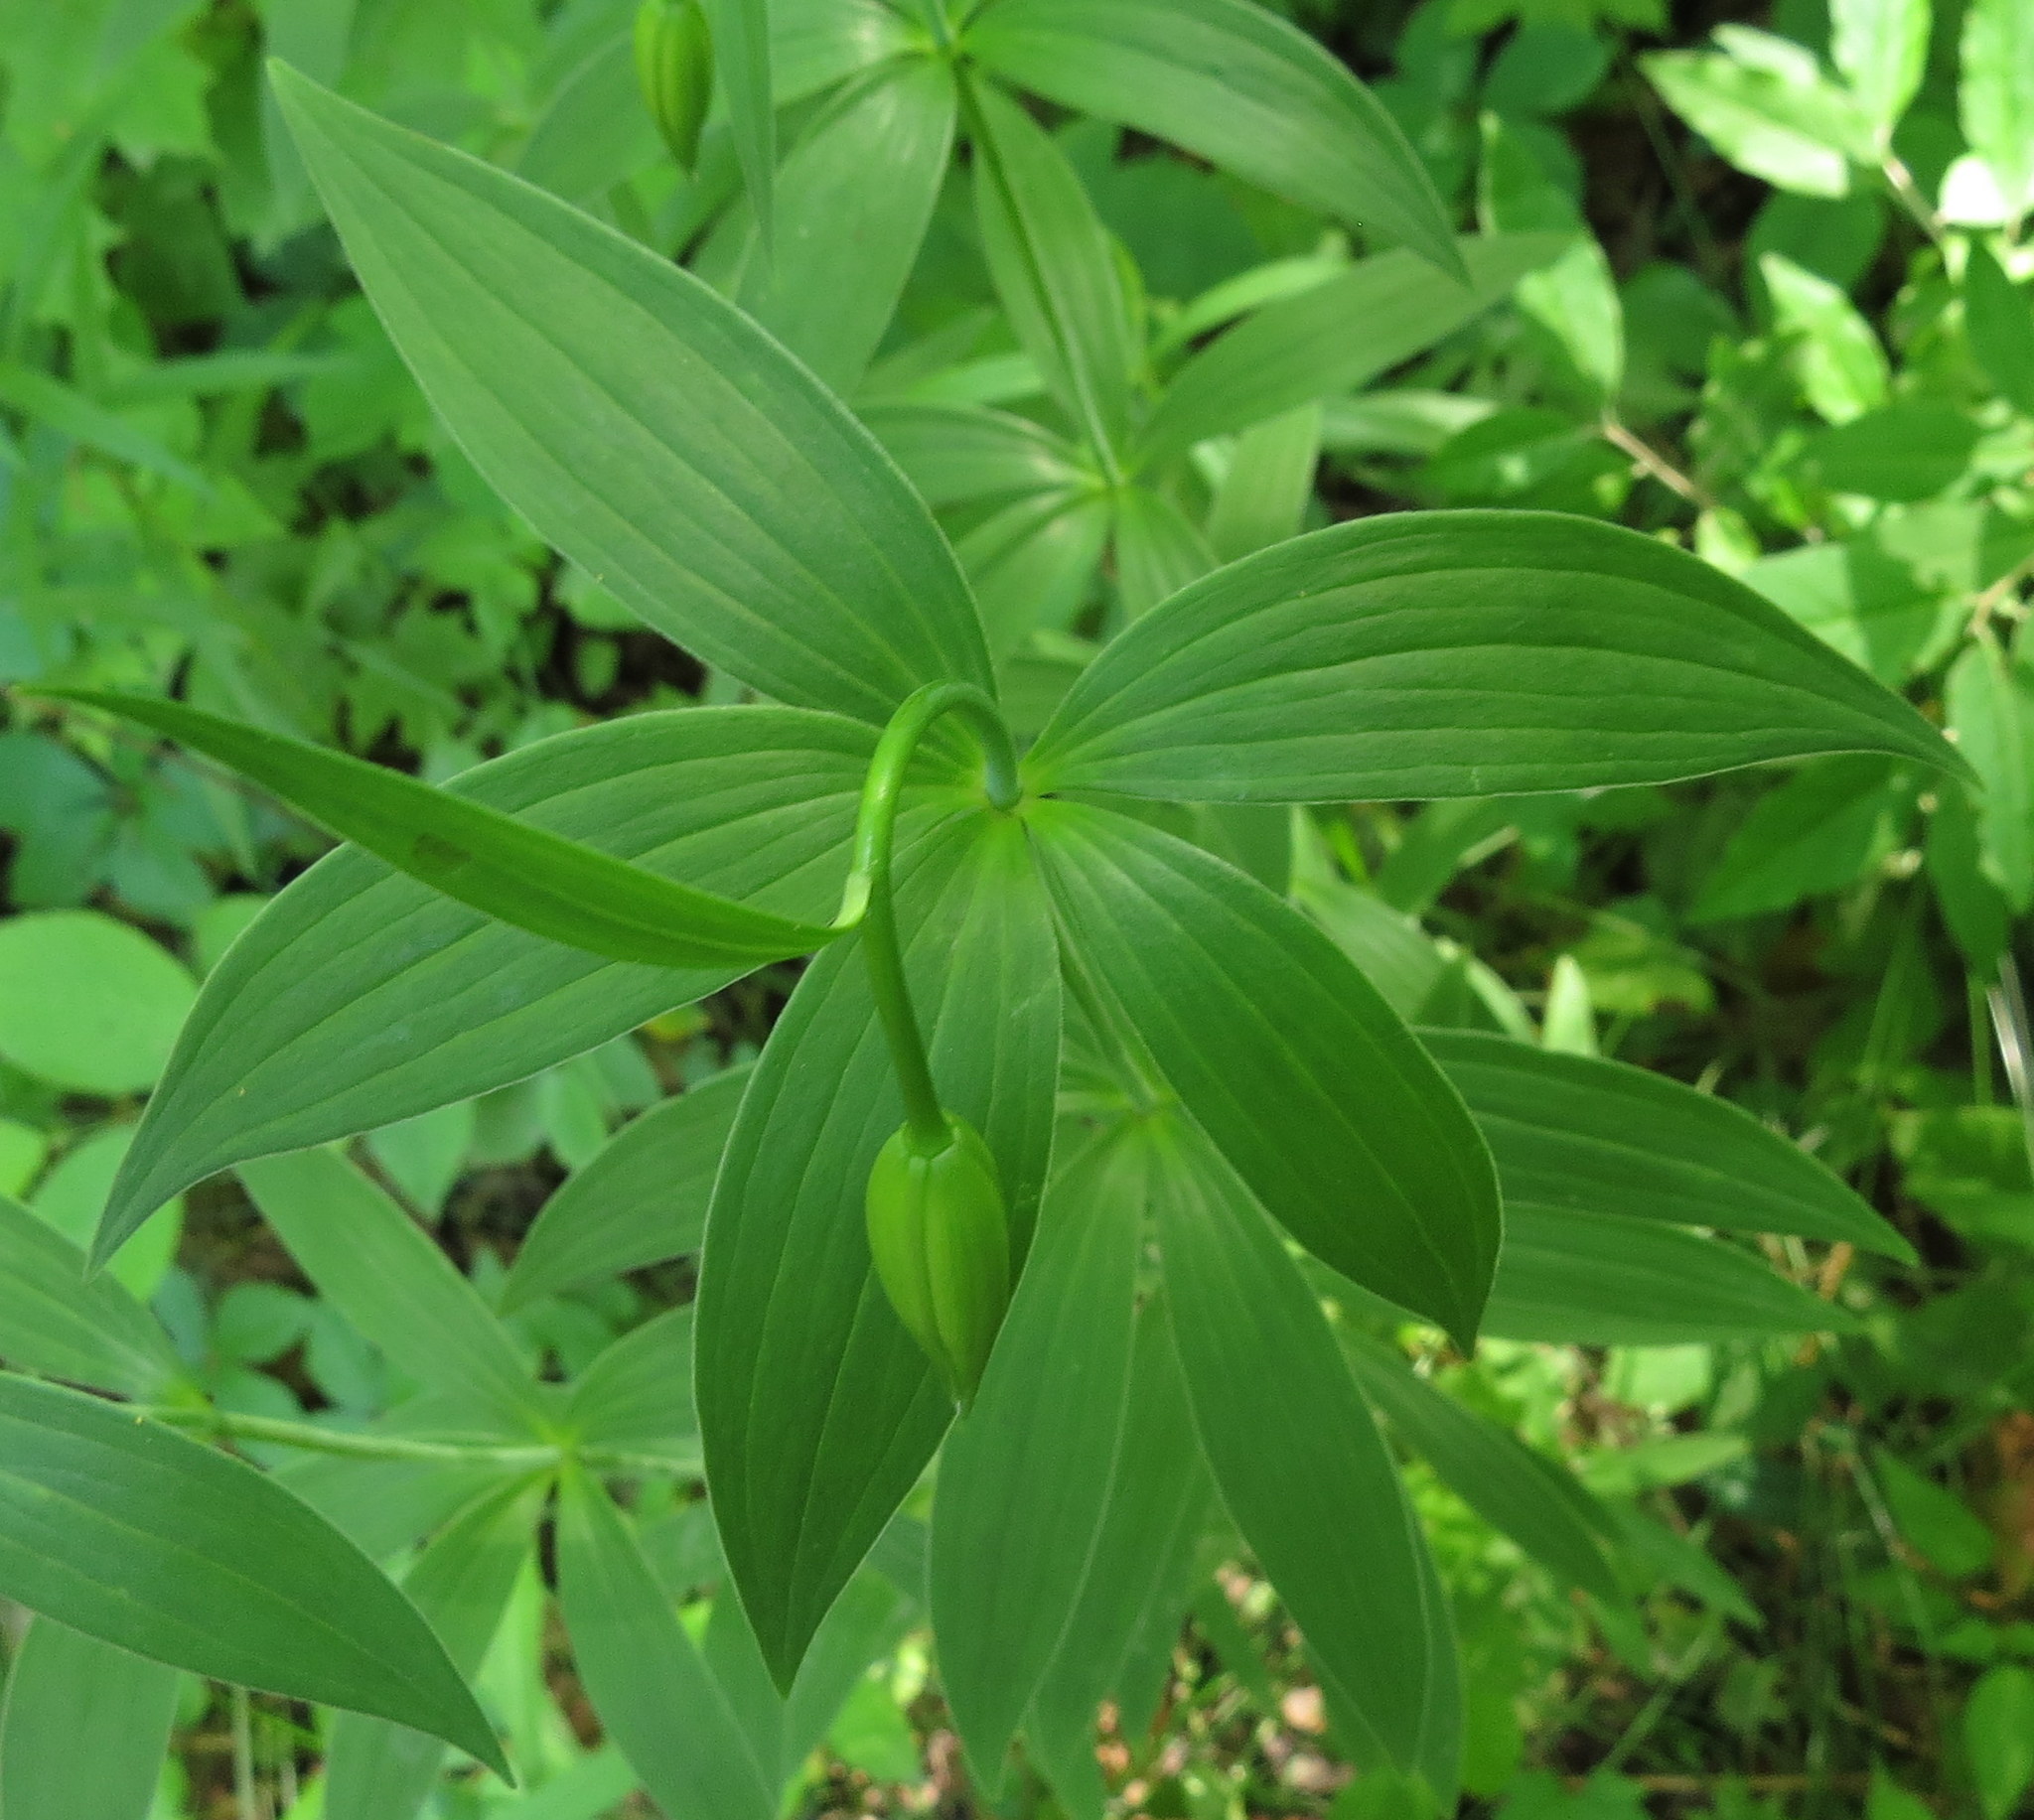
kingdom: Plantae
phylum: Tracheophyta
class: Liliopsida
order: Liliales
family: Liliaceae
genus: Lilium
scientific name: Lilium michiganense
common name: Michigan lily
